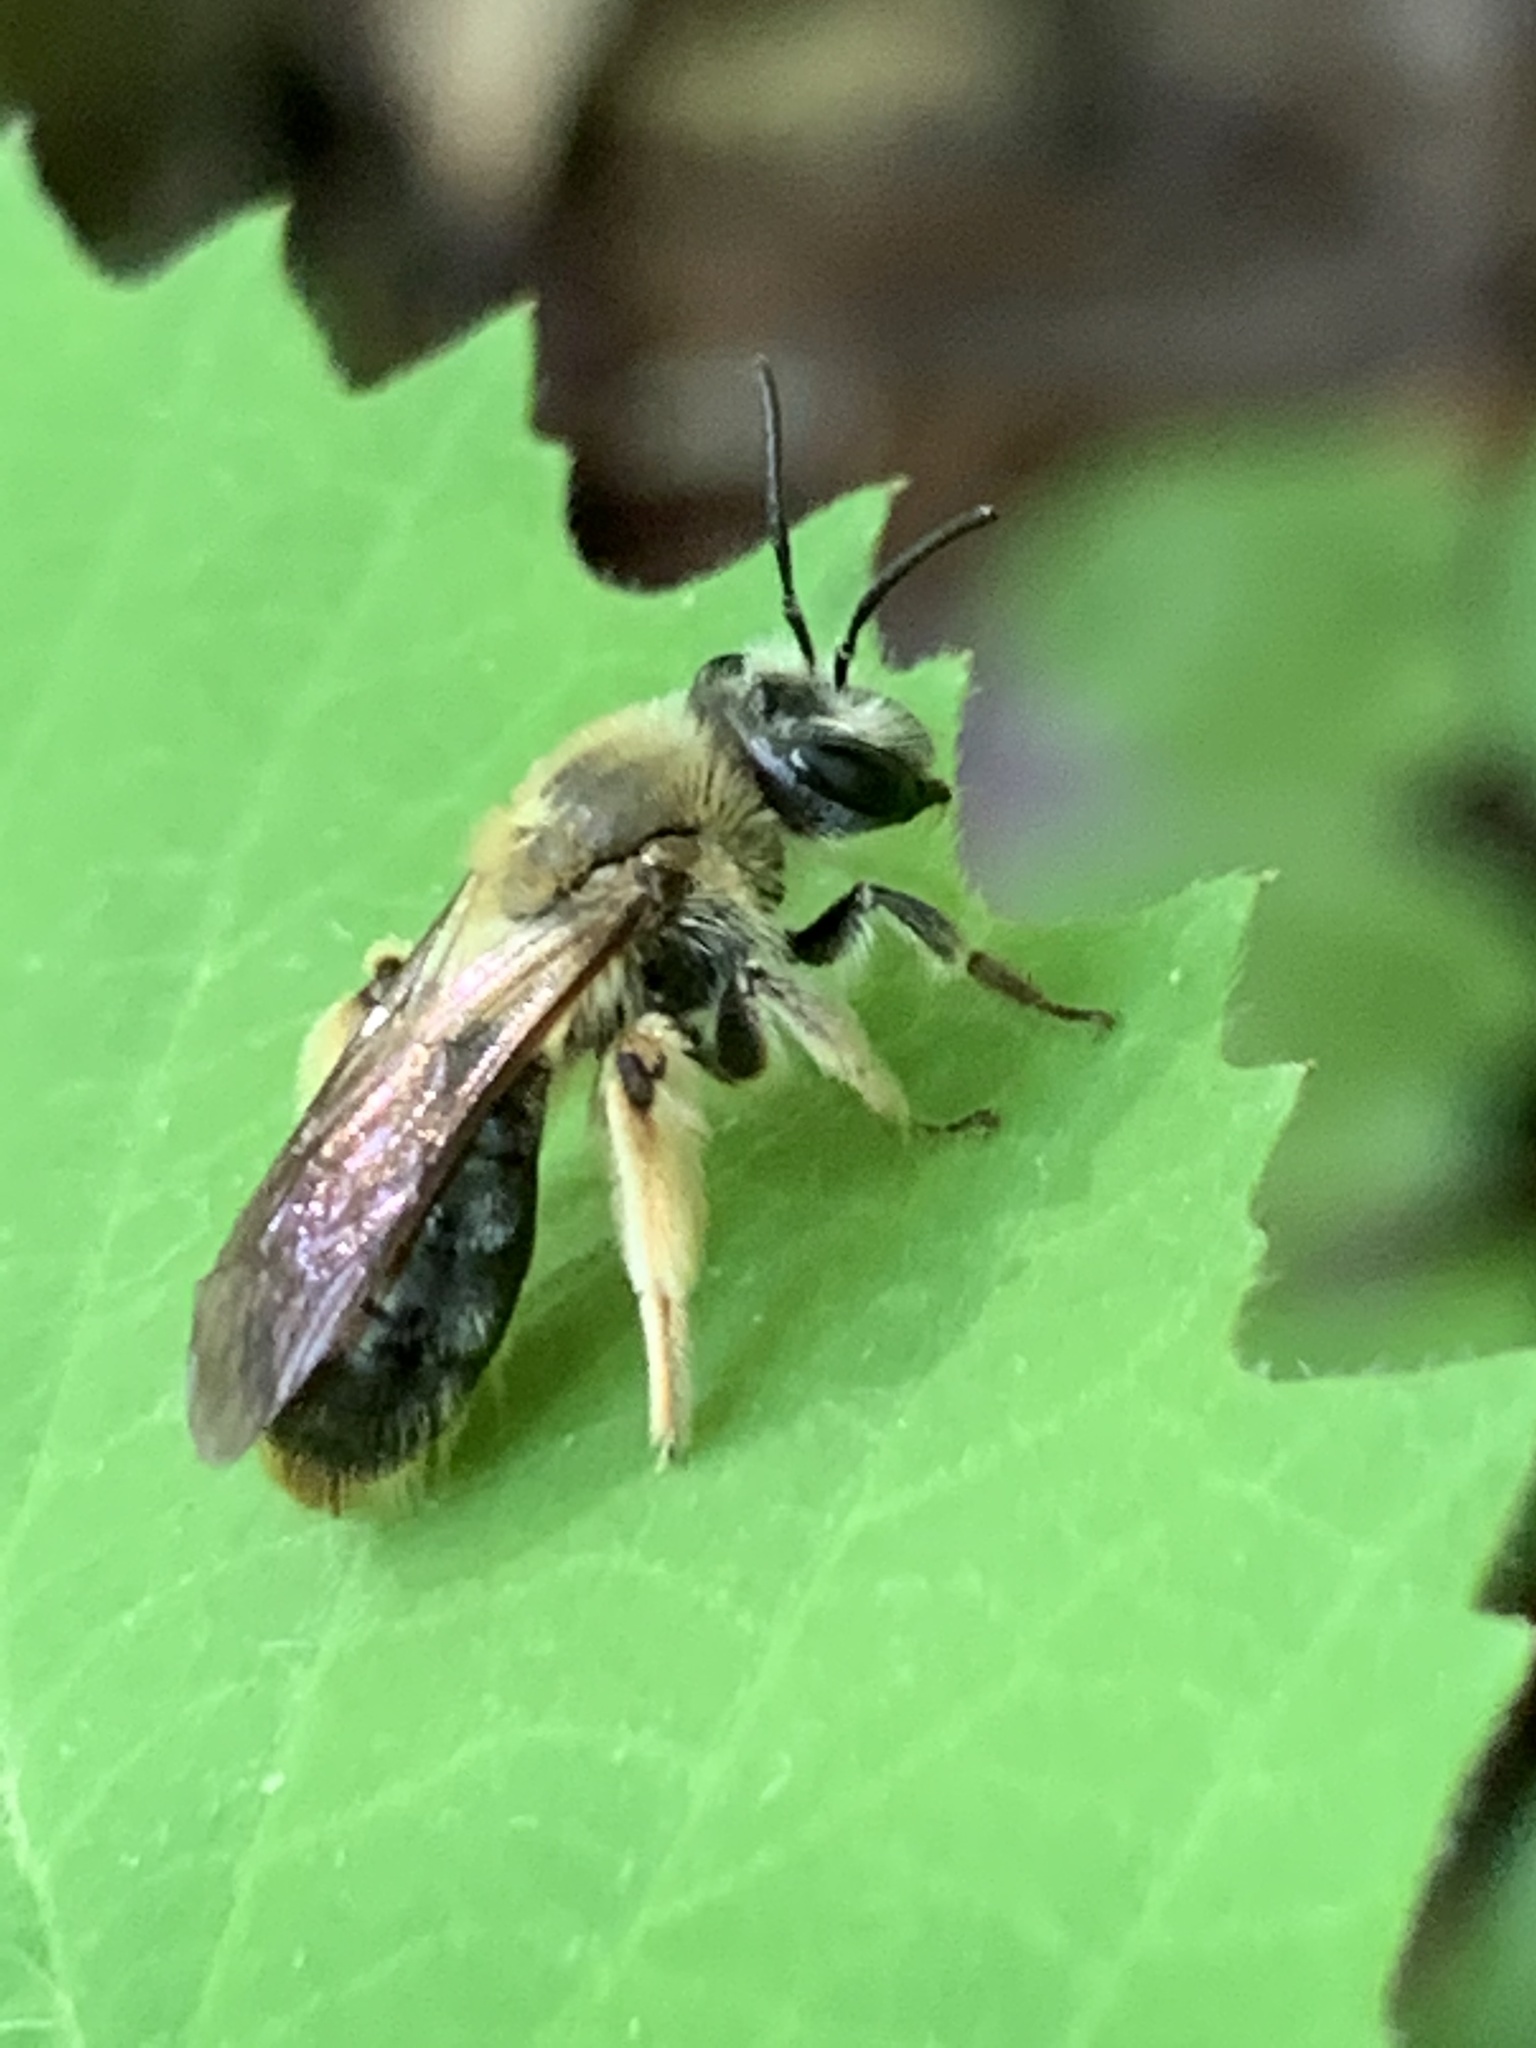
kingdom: Animalia
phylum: Arthropoda
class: Insecta
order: Hymenoptera
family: Andrenidae
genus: Andrena
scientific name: Andrena
